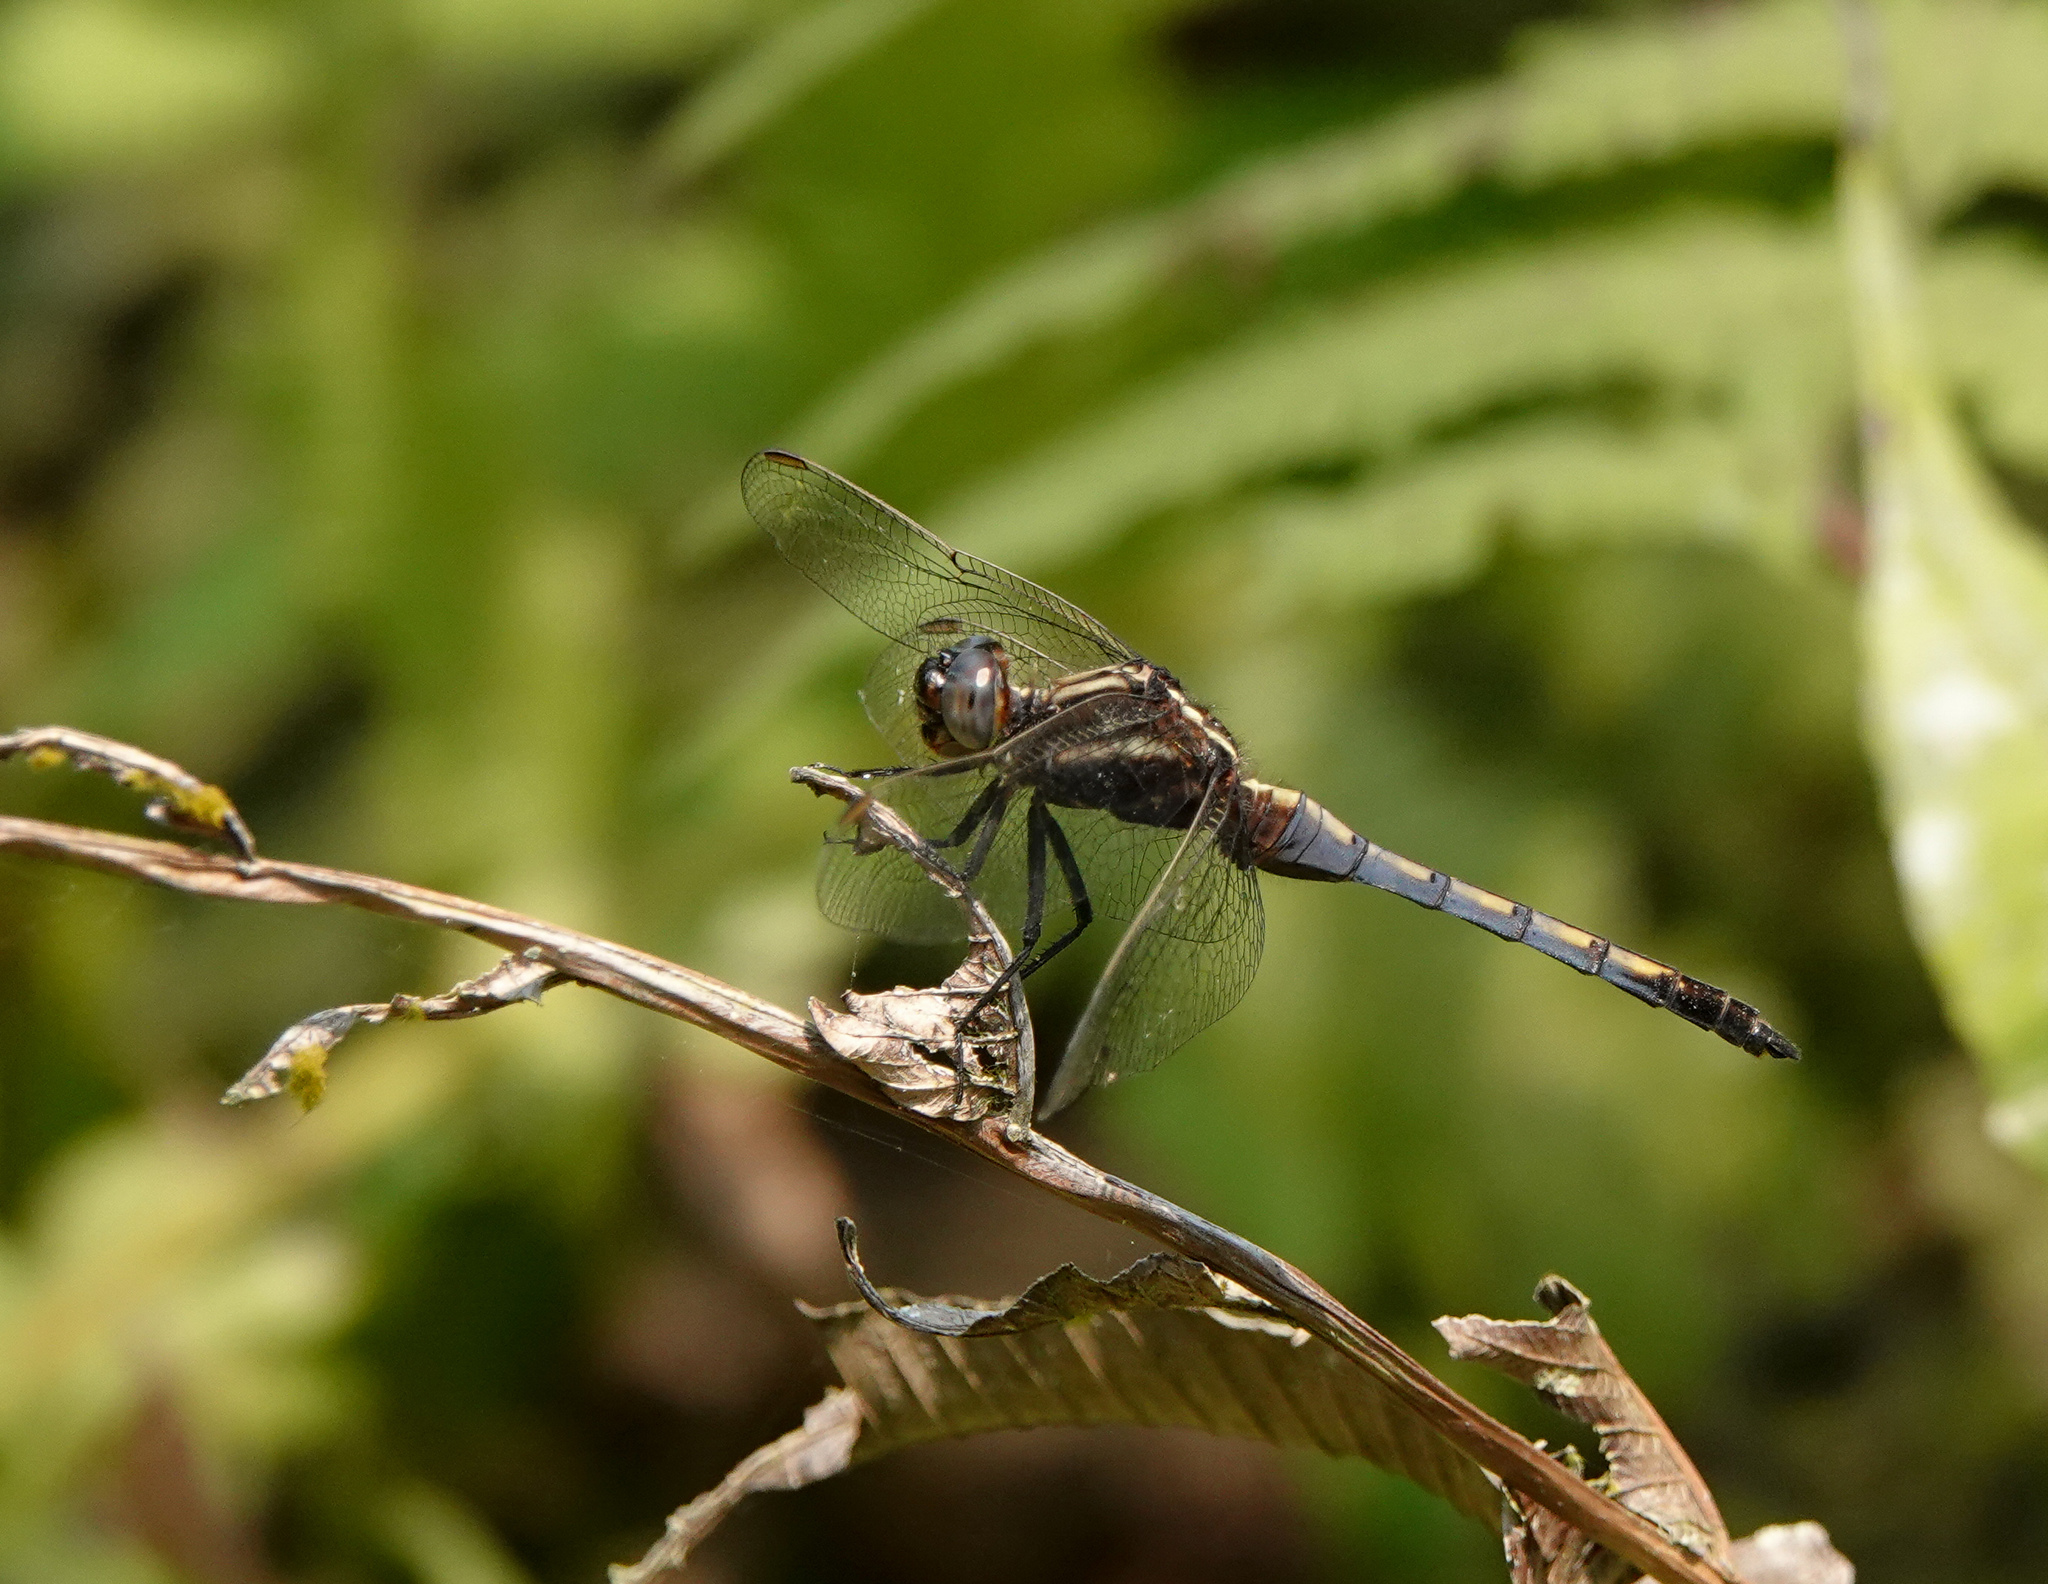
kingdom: Animalia
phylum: Arthropoda
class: Insecta
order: Odonata
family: Libellulidae
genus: Orthetrum
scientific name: Orthetrum glaucum
